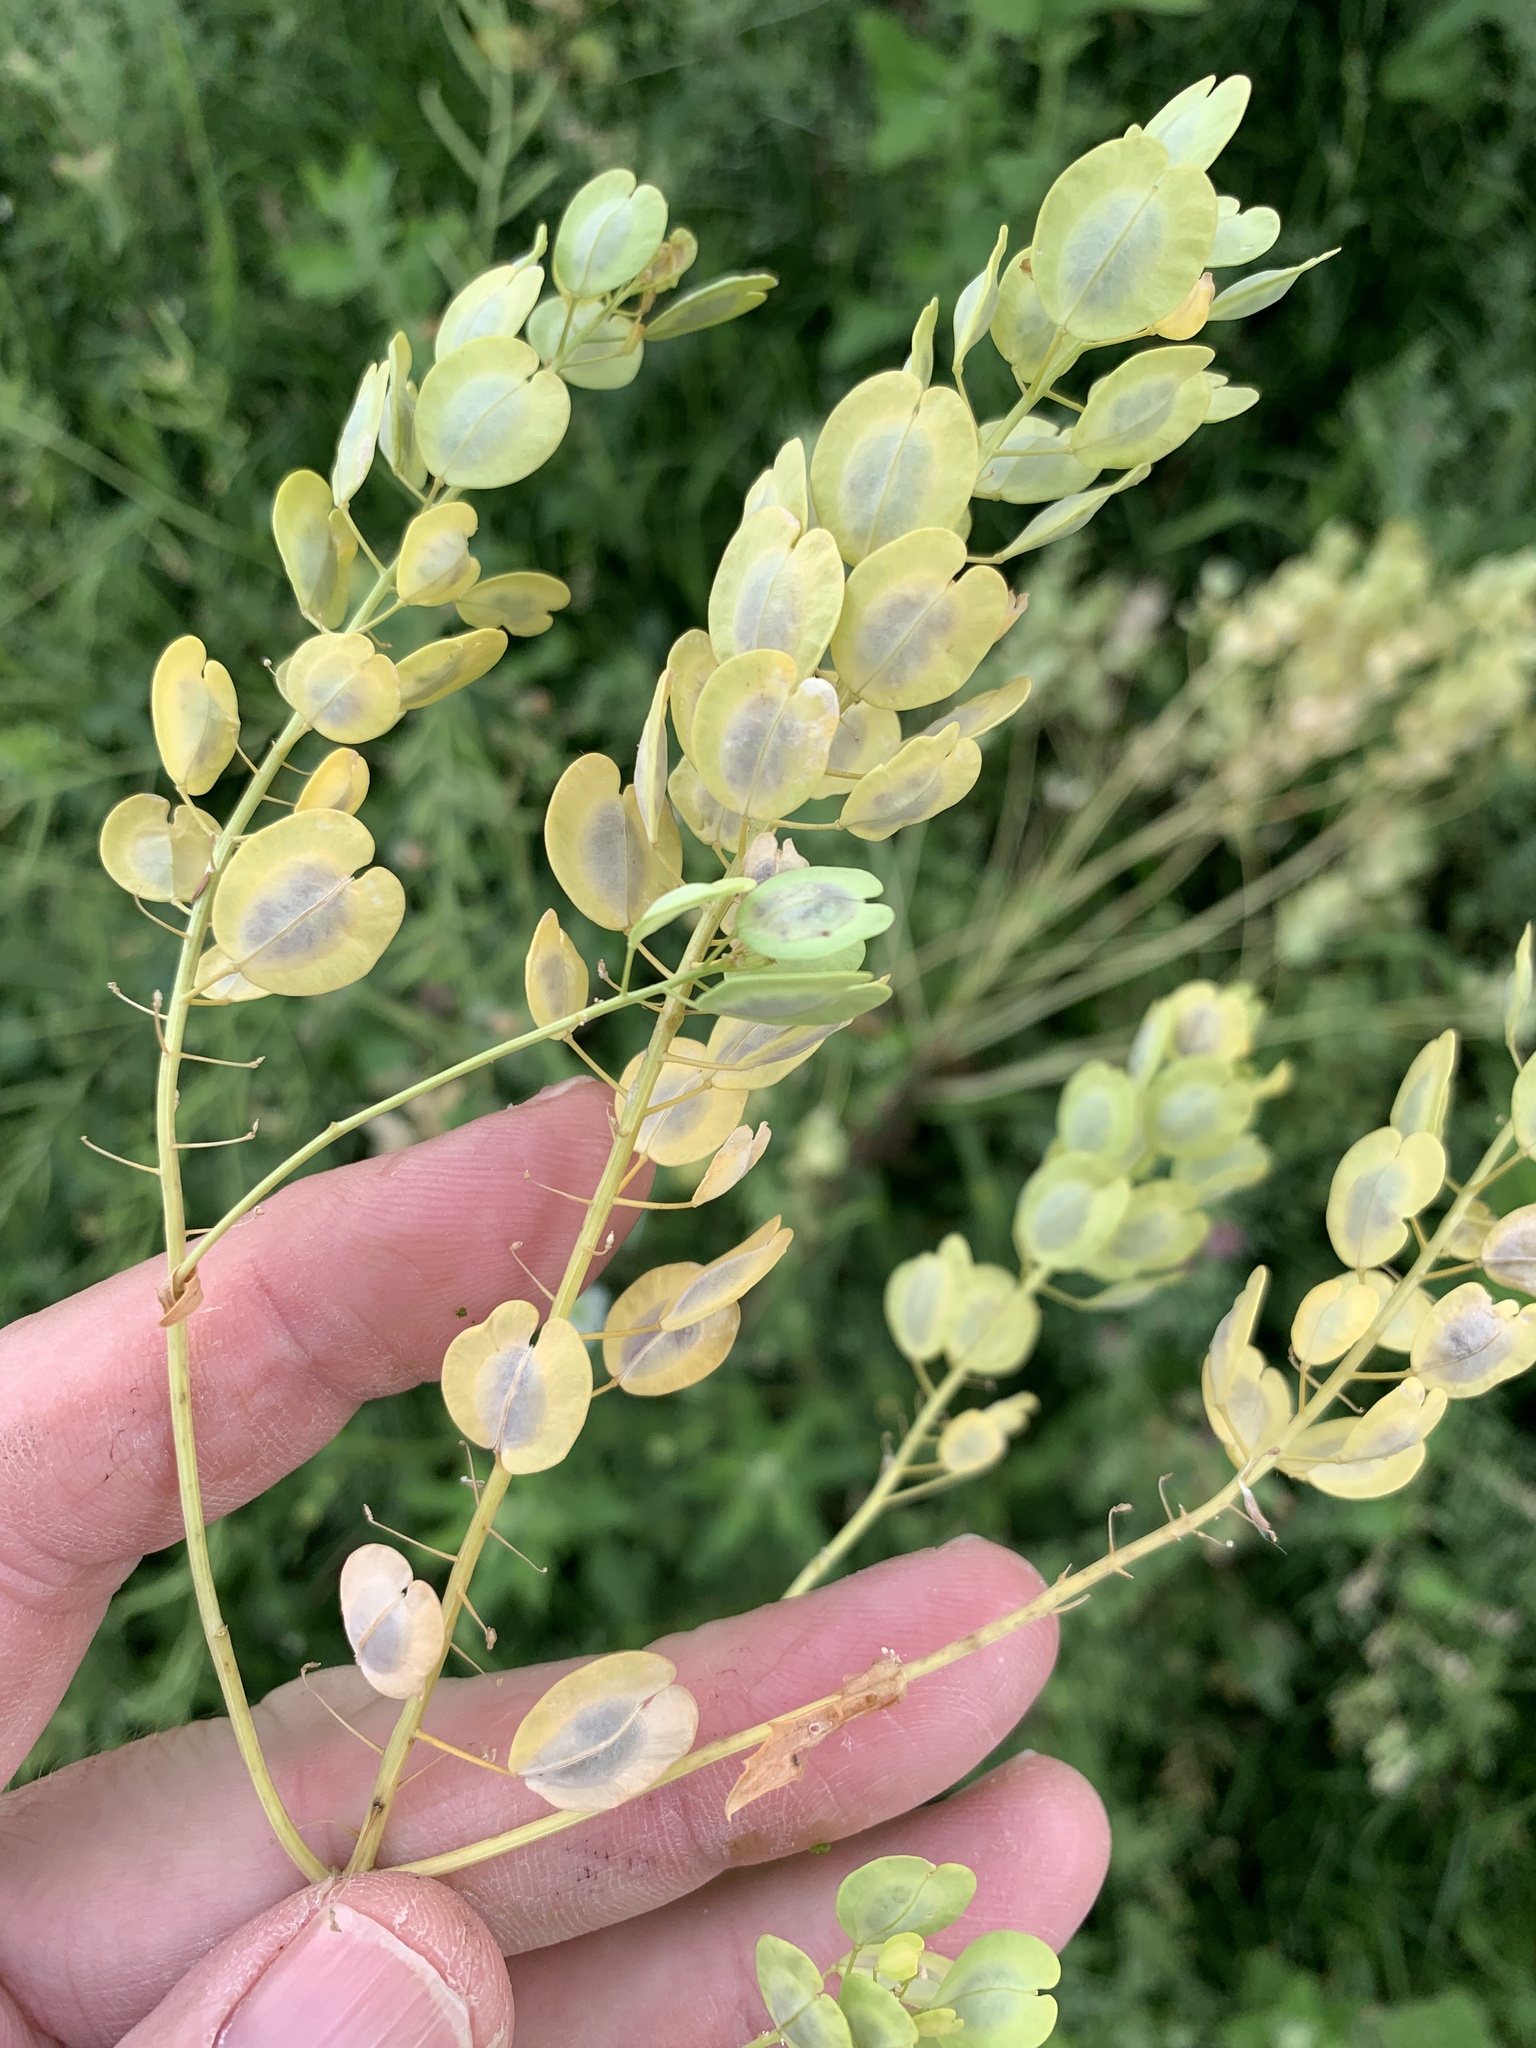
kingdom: Plantae
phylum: Tracheophyta
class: Magnoliopsida
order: Brassicales
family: Brassicaceae
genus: Thlaspi
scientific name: Thlaspi arvense
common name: Field pennycress
